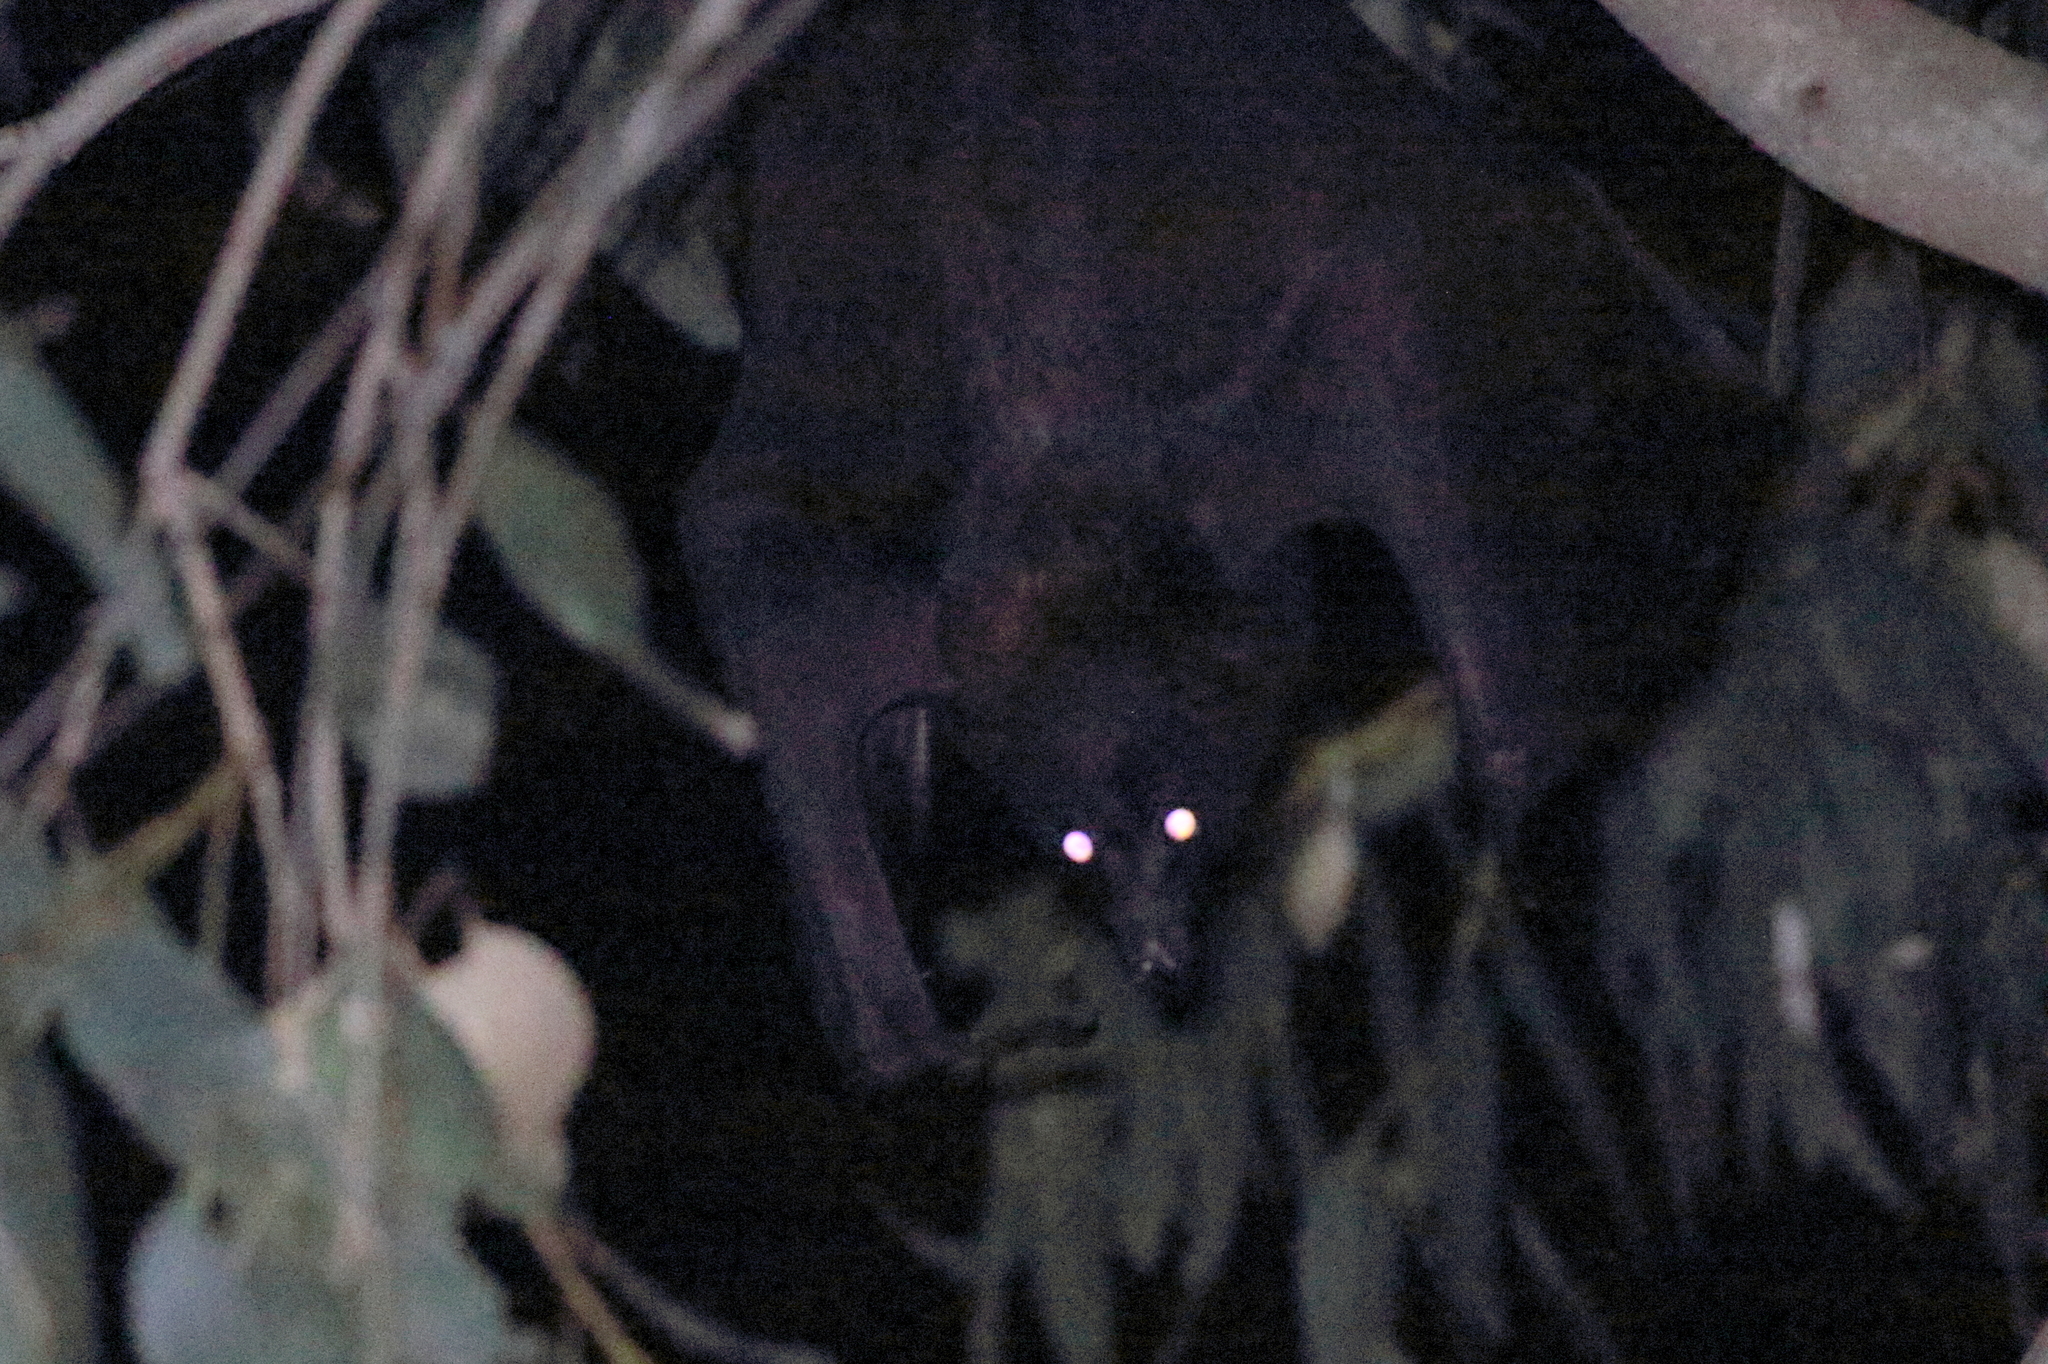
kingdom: Animalia
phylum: Chordata
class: Mammalia
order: Chiroptera
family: Pteropodidae
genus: Pteropus
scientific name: Pteropus alecto
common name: Black flying fox
